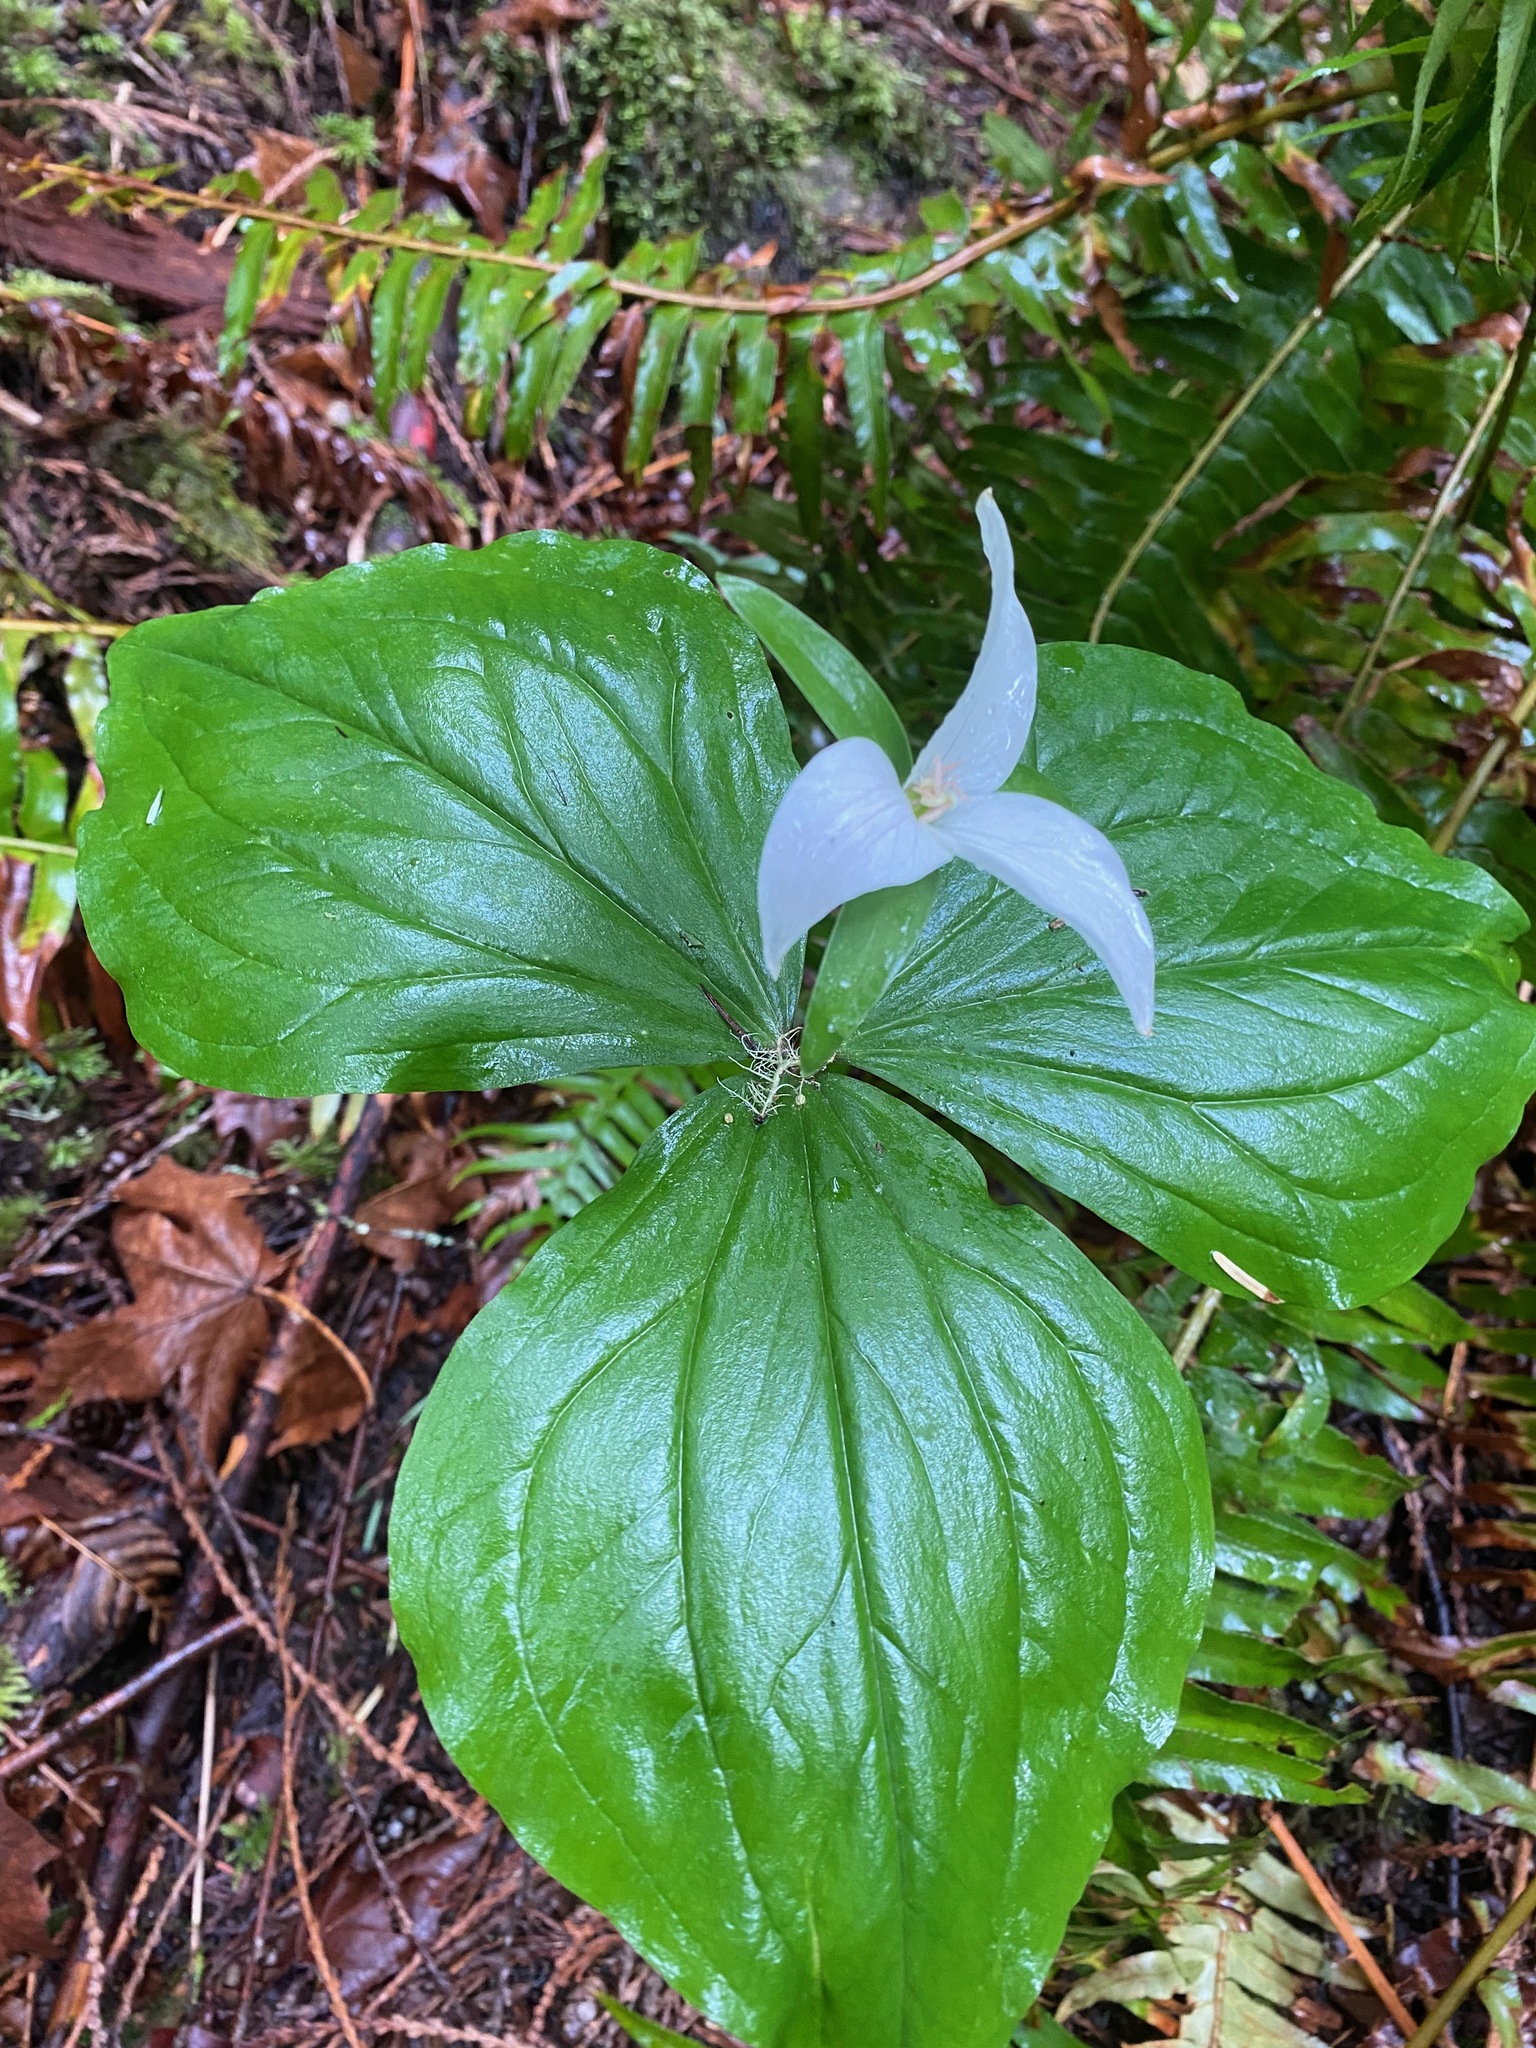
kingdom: Plantae
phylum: Tracheophyta
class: Liliopsida
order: Liliales
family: Melanthiaceae
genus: Trillium
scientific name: Trillium ovatum
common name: Pacific trillium
